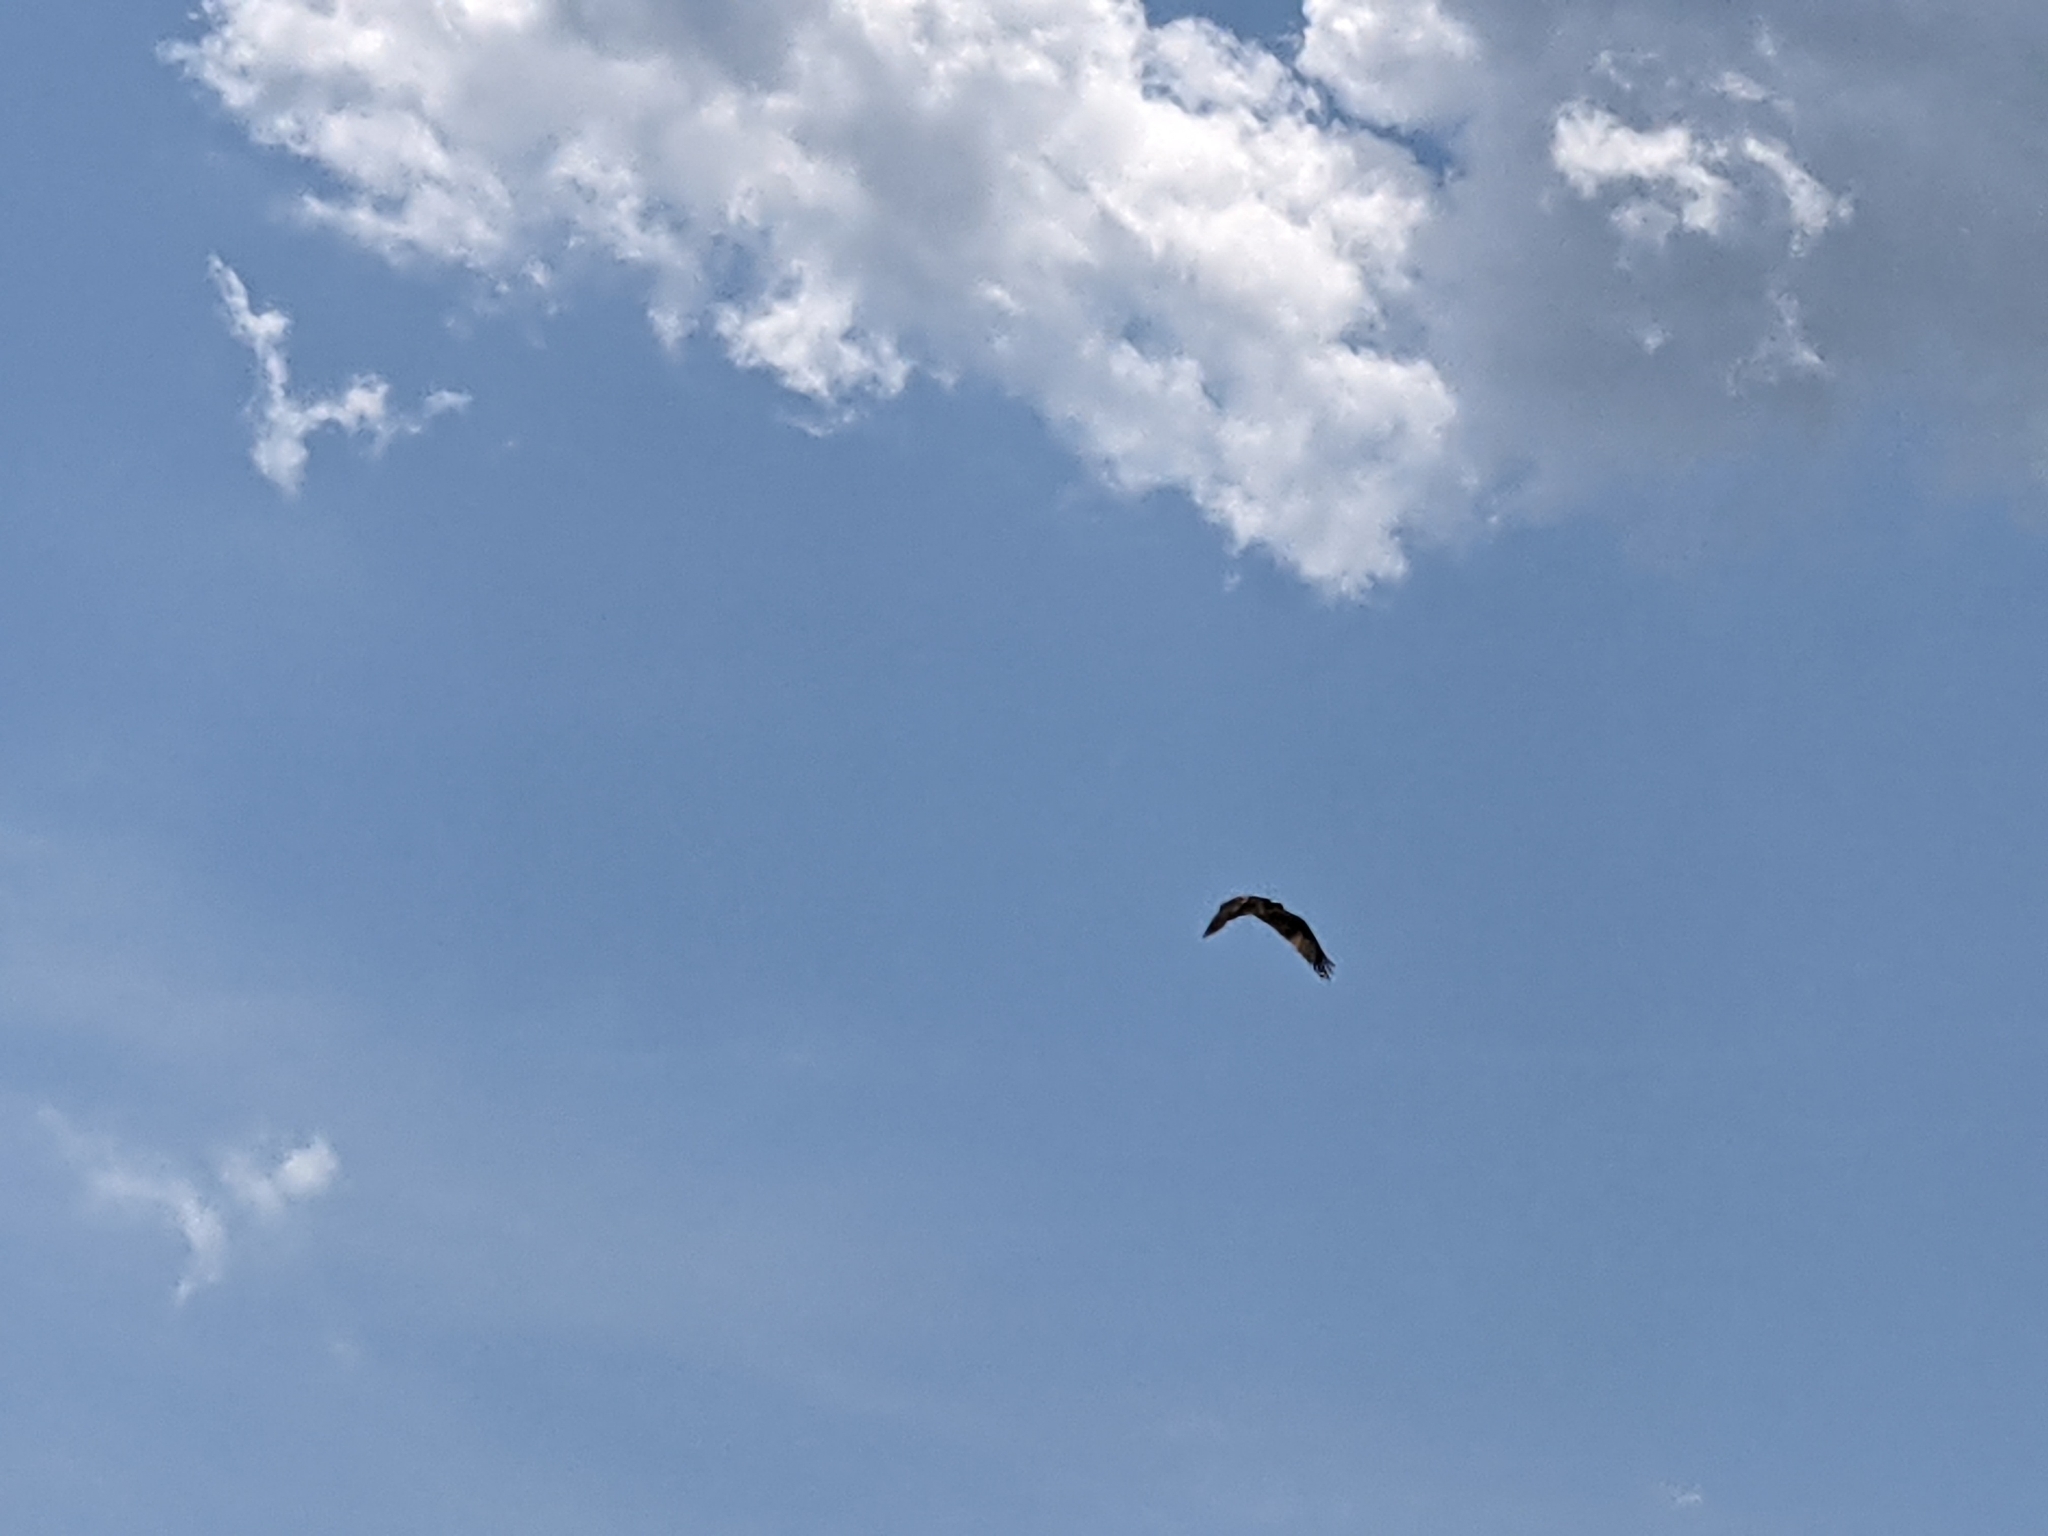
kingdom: Animalia
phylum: Chordata
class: Aves
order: Accipitriformes
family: Pandionidae
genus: Pandion
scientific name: Pandion haliaetus
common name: Osprey
